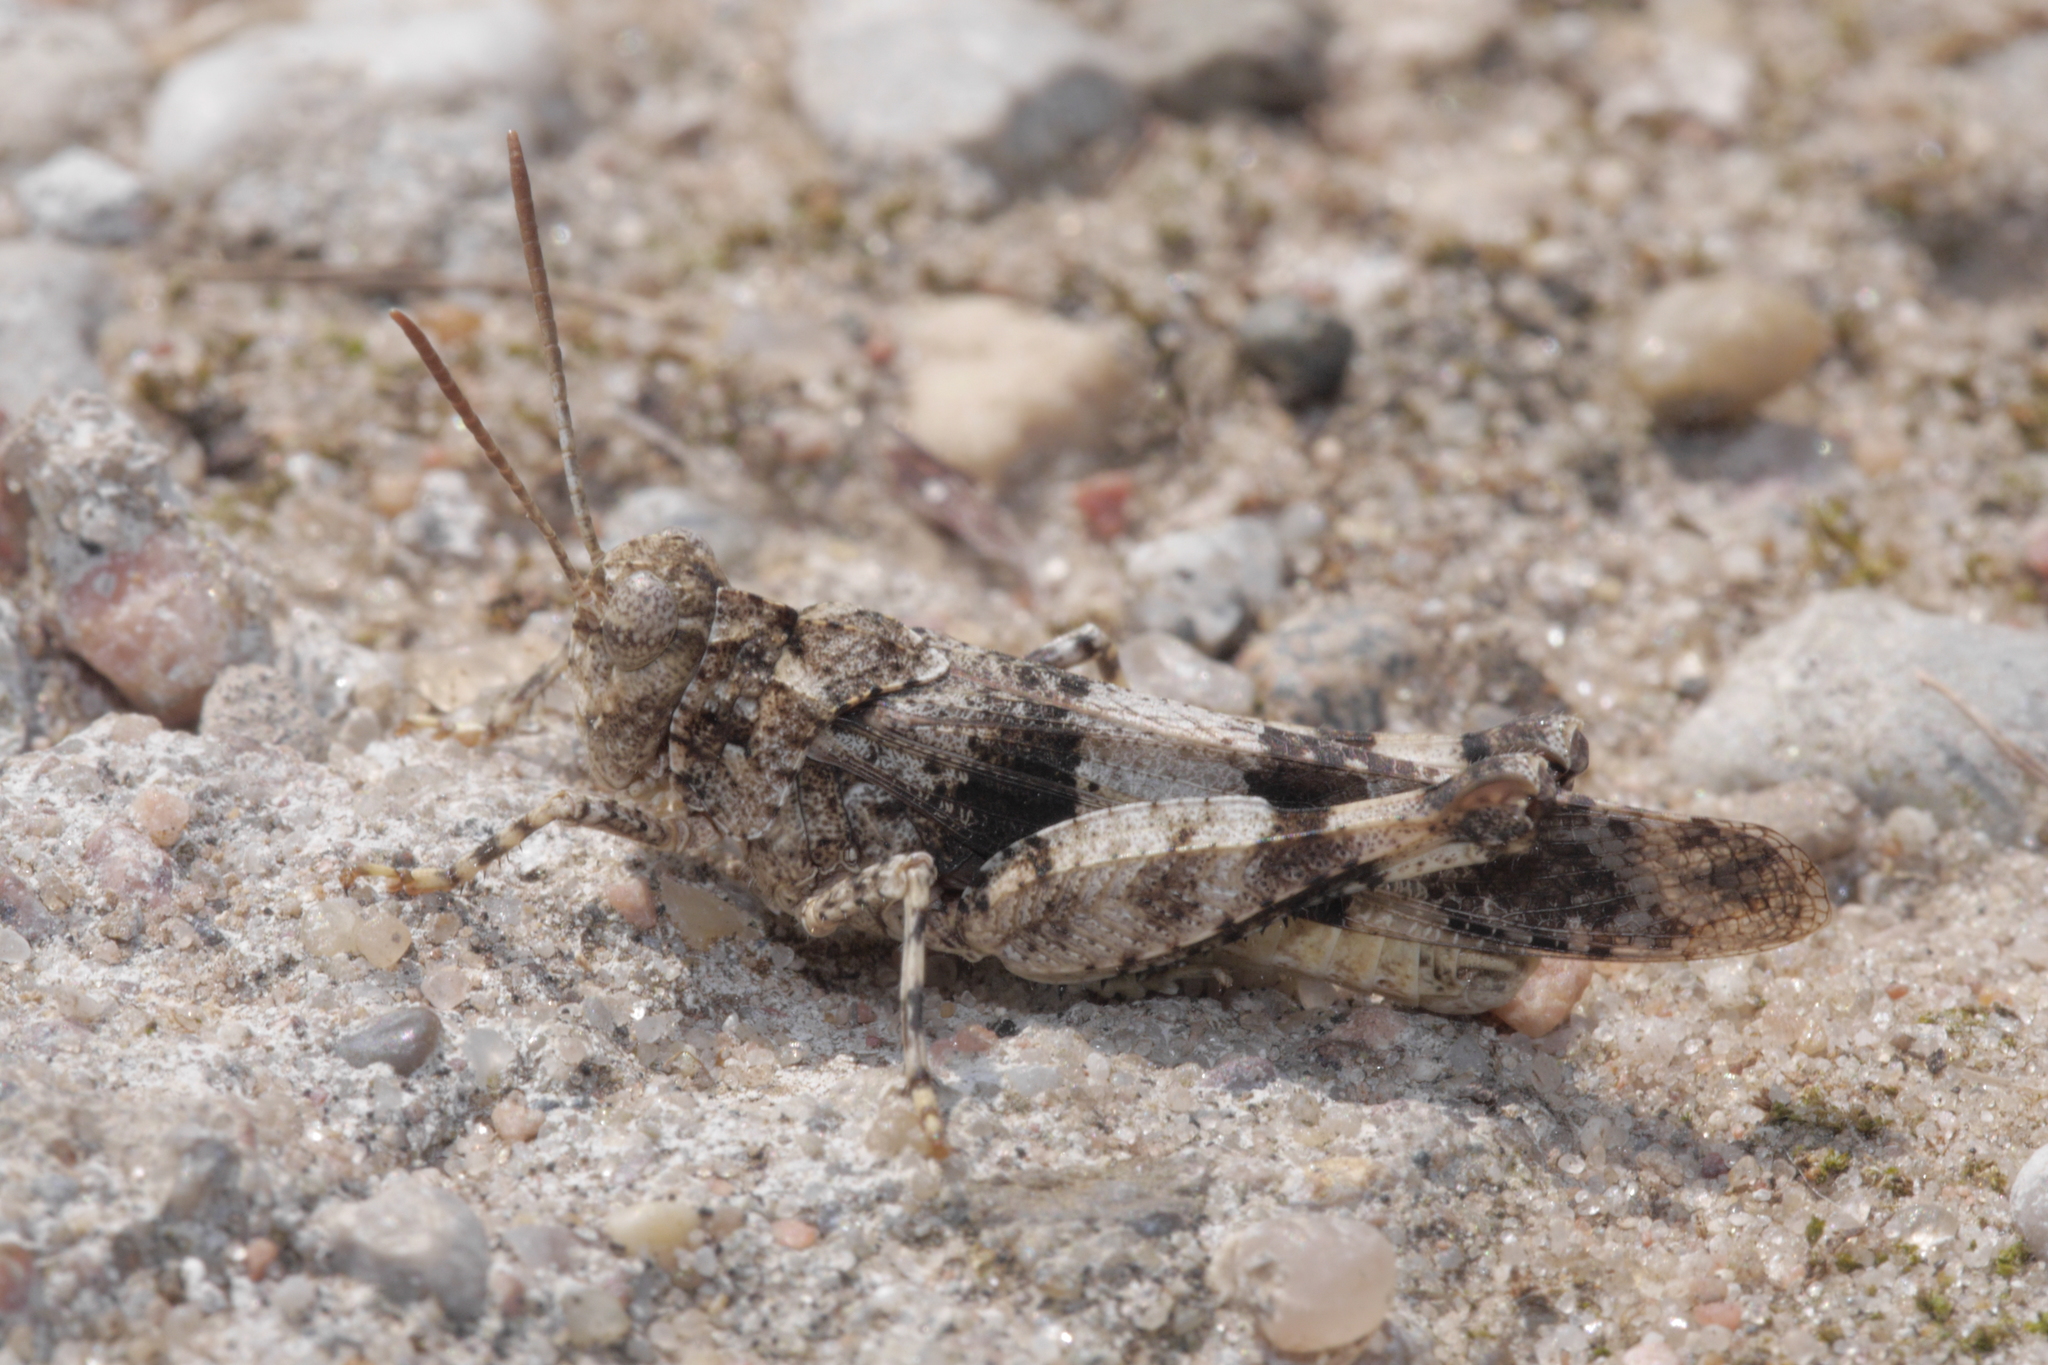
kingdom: Animalia
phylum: Arthropoda
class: Insecta
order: Orthoptera
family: Acrididae
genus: Oedipoda
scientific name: Oedipoda caerulescens
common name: Blue-winged grasshopper
